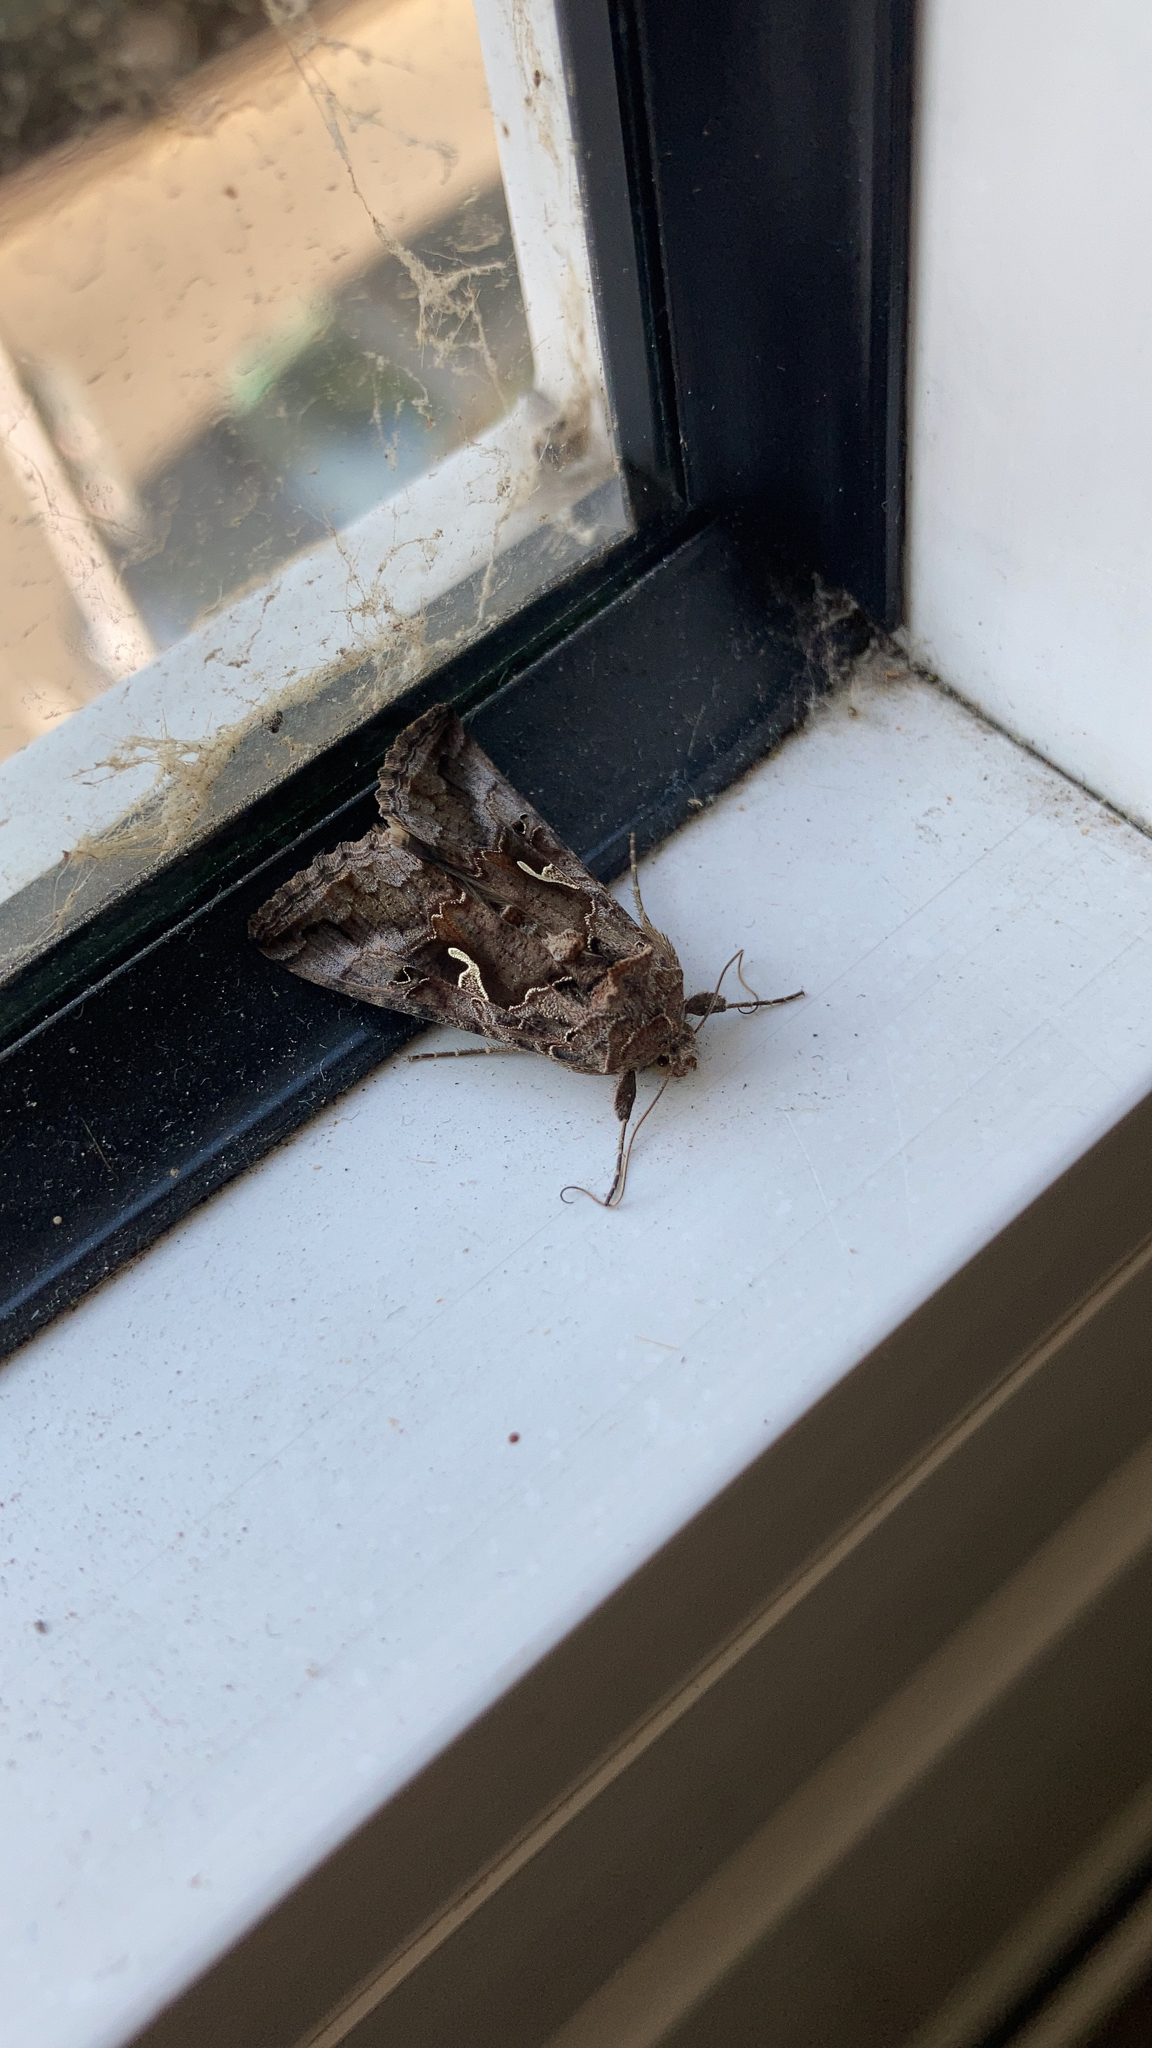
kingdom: Animalia
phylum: Arthropoda
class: Insecta
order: Lepidoptera
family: Noctuidae
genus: Autographa
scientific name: Autographa gamma
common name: Silver y
